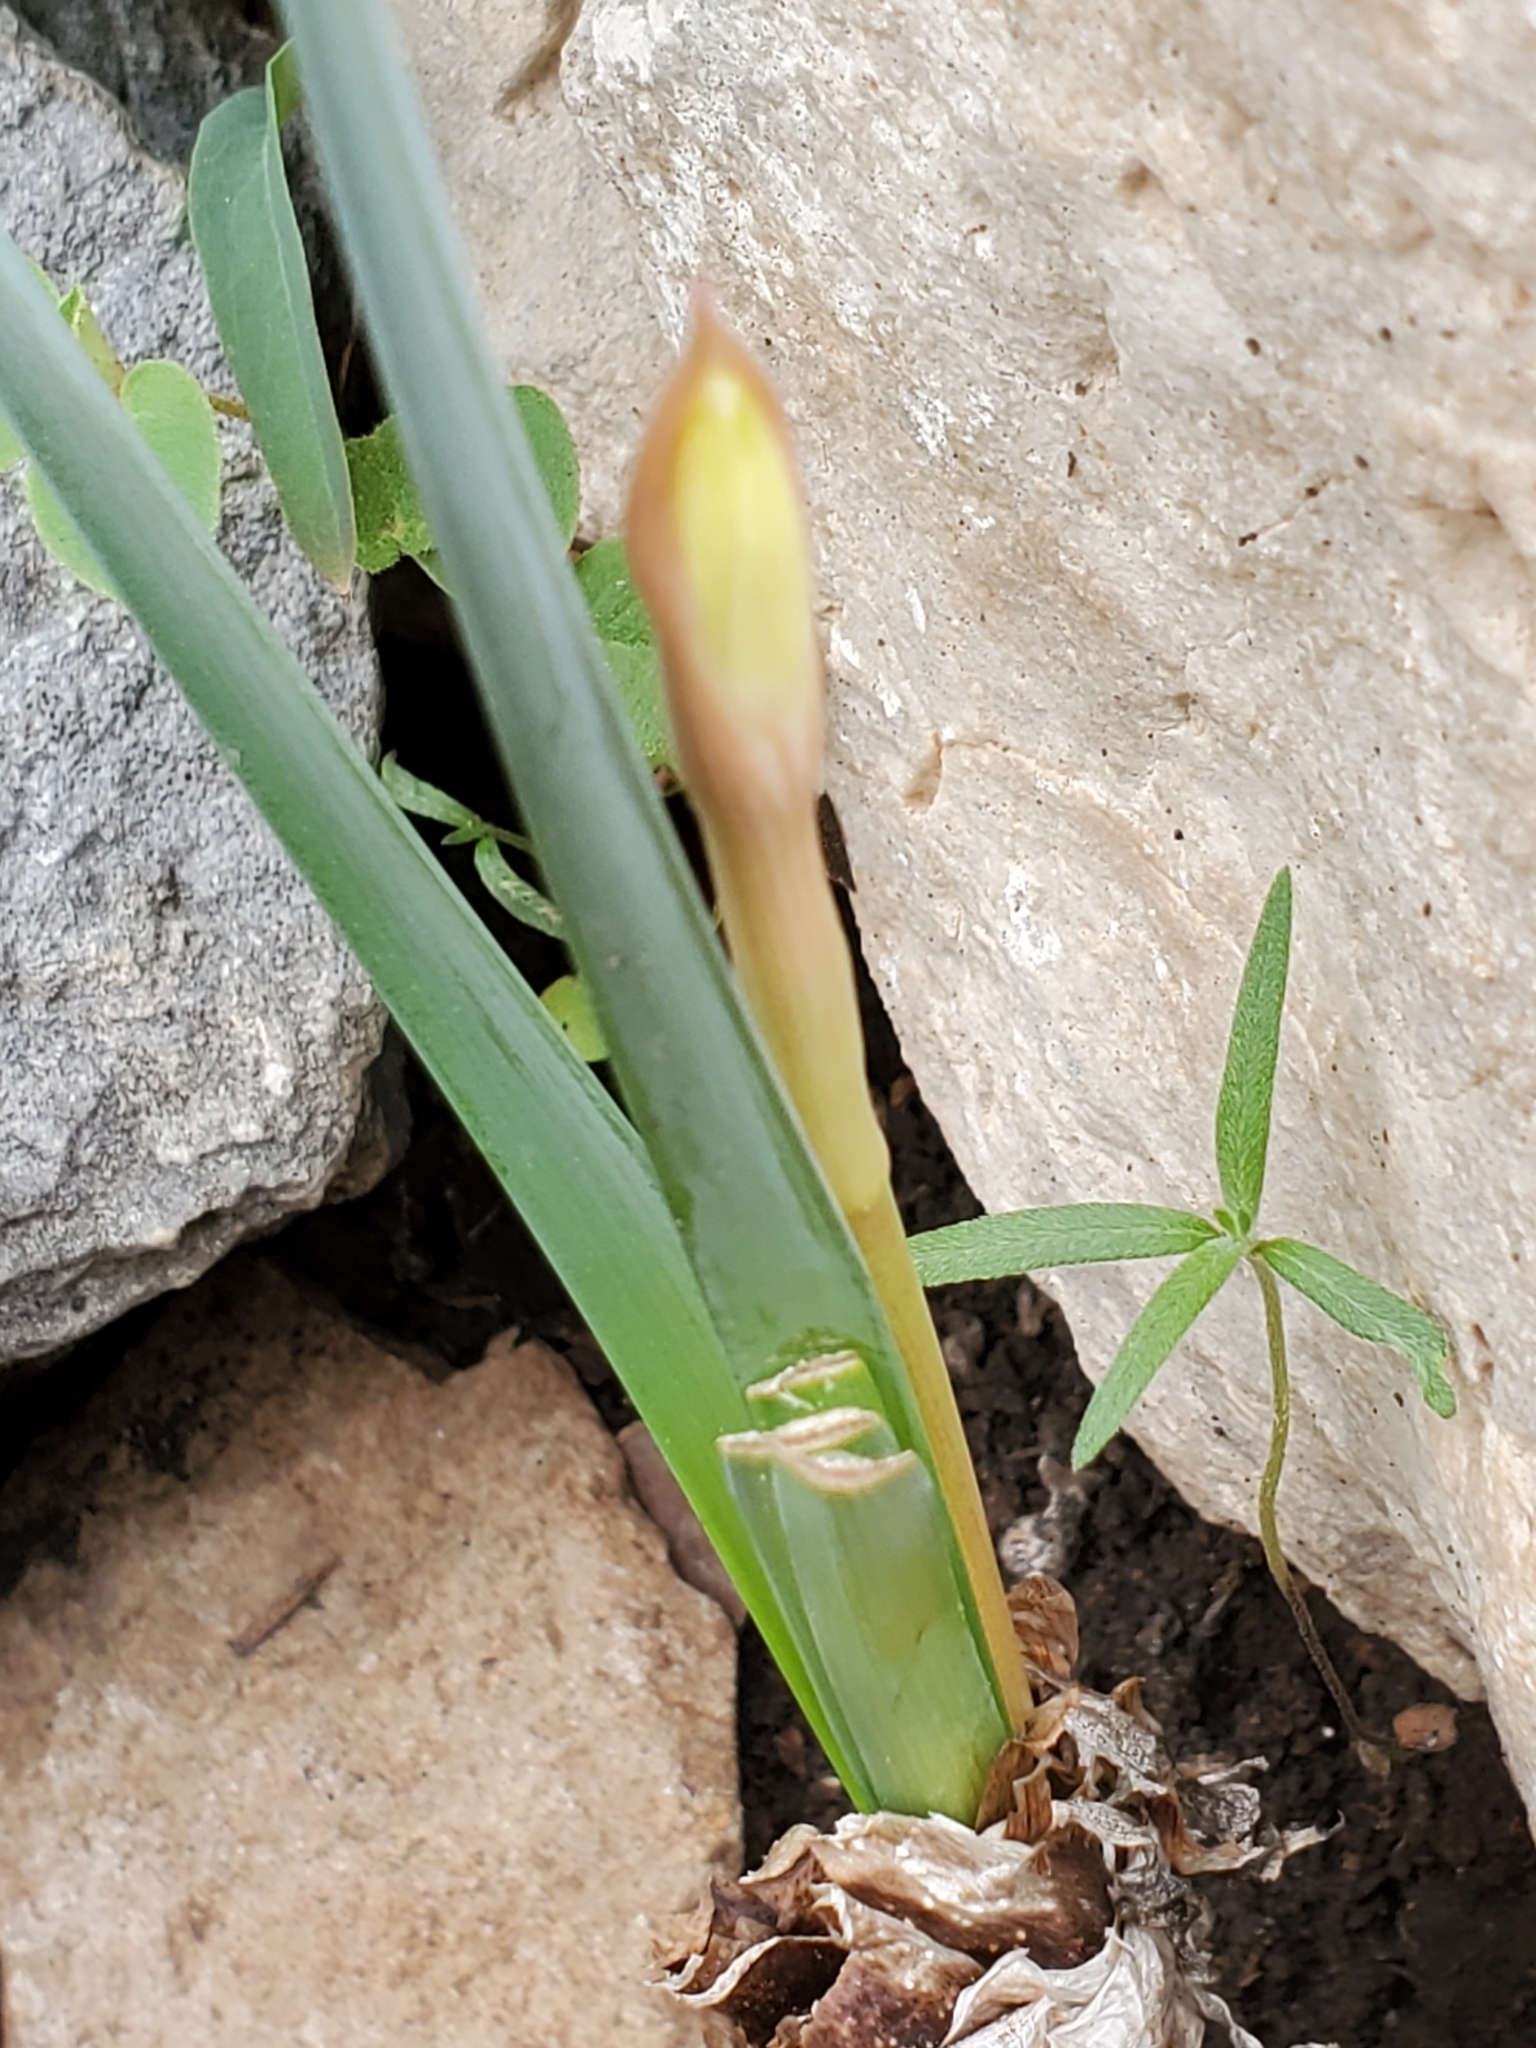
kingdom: Plantae
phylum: Tracheophyta
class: Liliopsida
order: Asparagales
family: Amaryllidaceae
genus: Zephyranthes
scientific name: Zephyranthes drummondii
